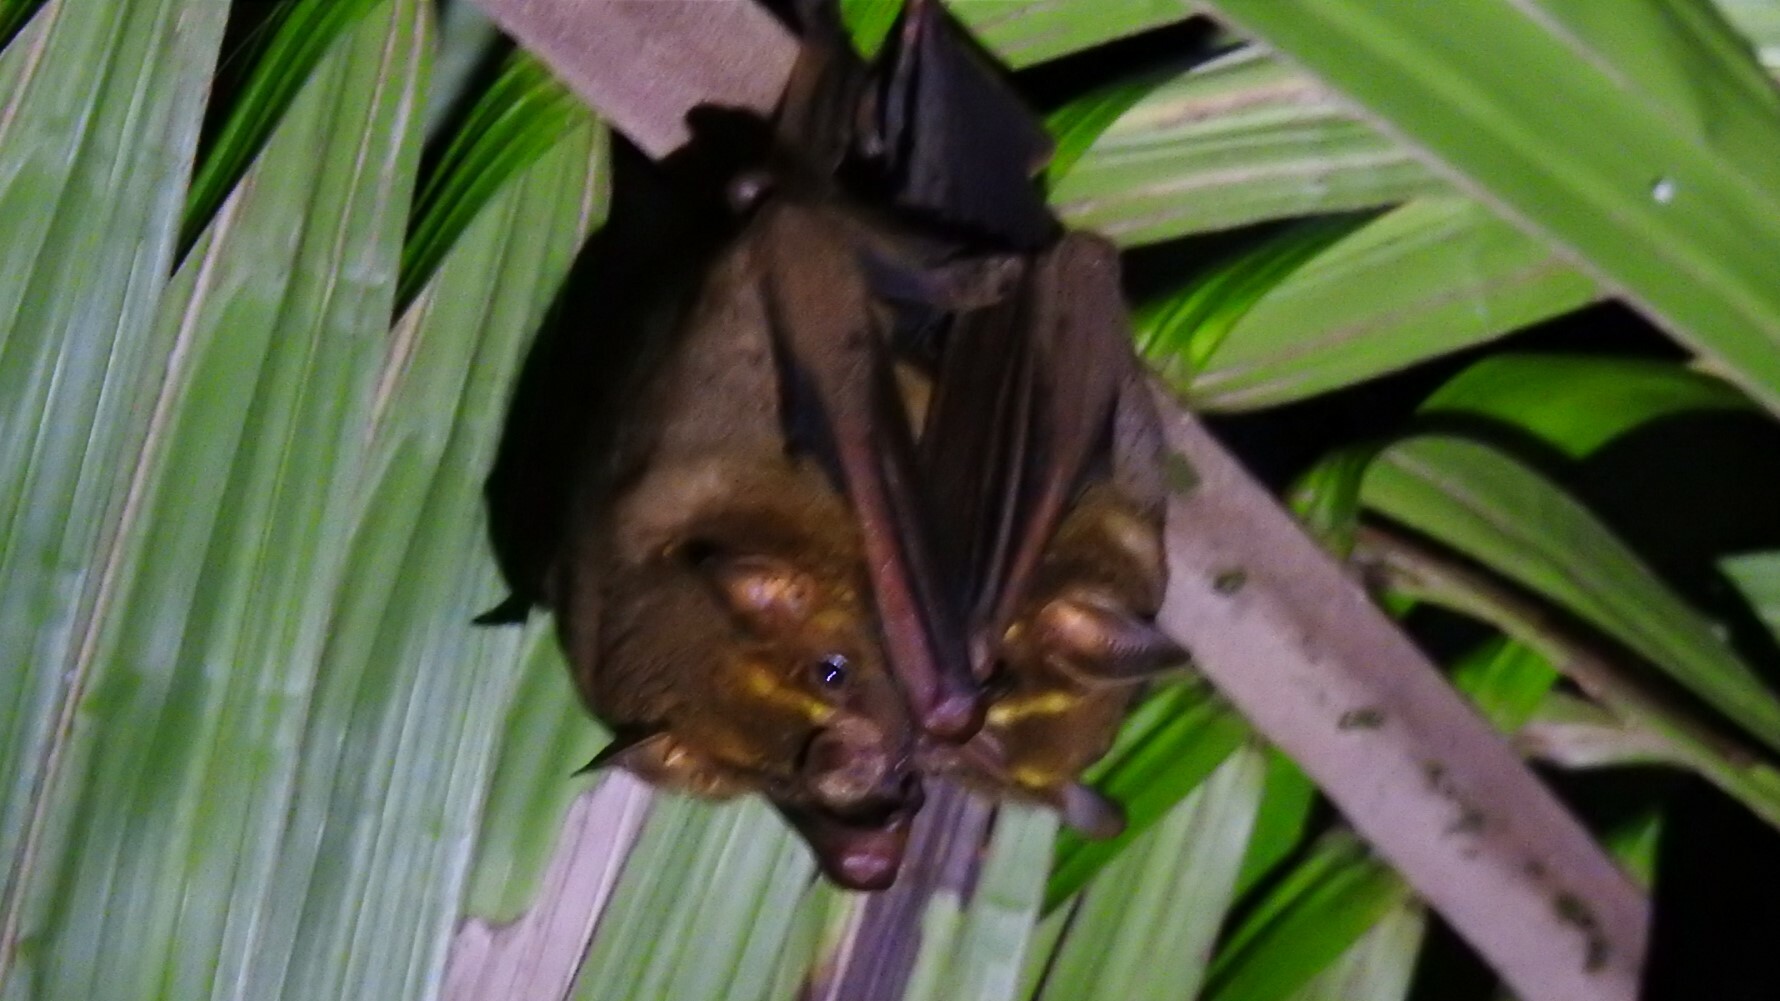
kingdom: Animalia
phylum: Chordata
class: Mammalia
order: Chiroptera
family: Phyllostomidae
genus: Artibeus
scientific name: Artibeus lituratus
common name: Great fruit-eating bat
